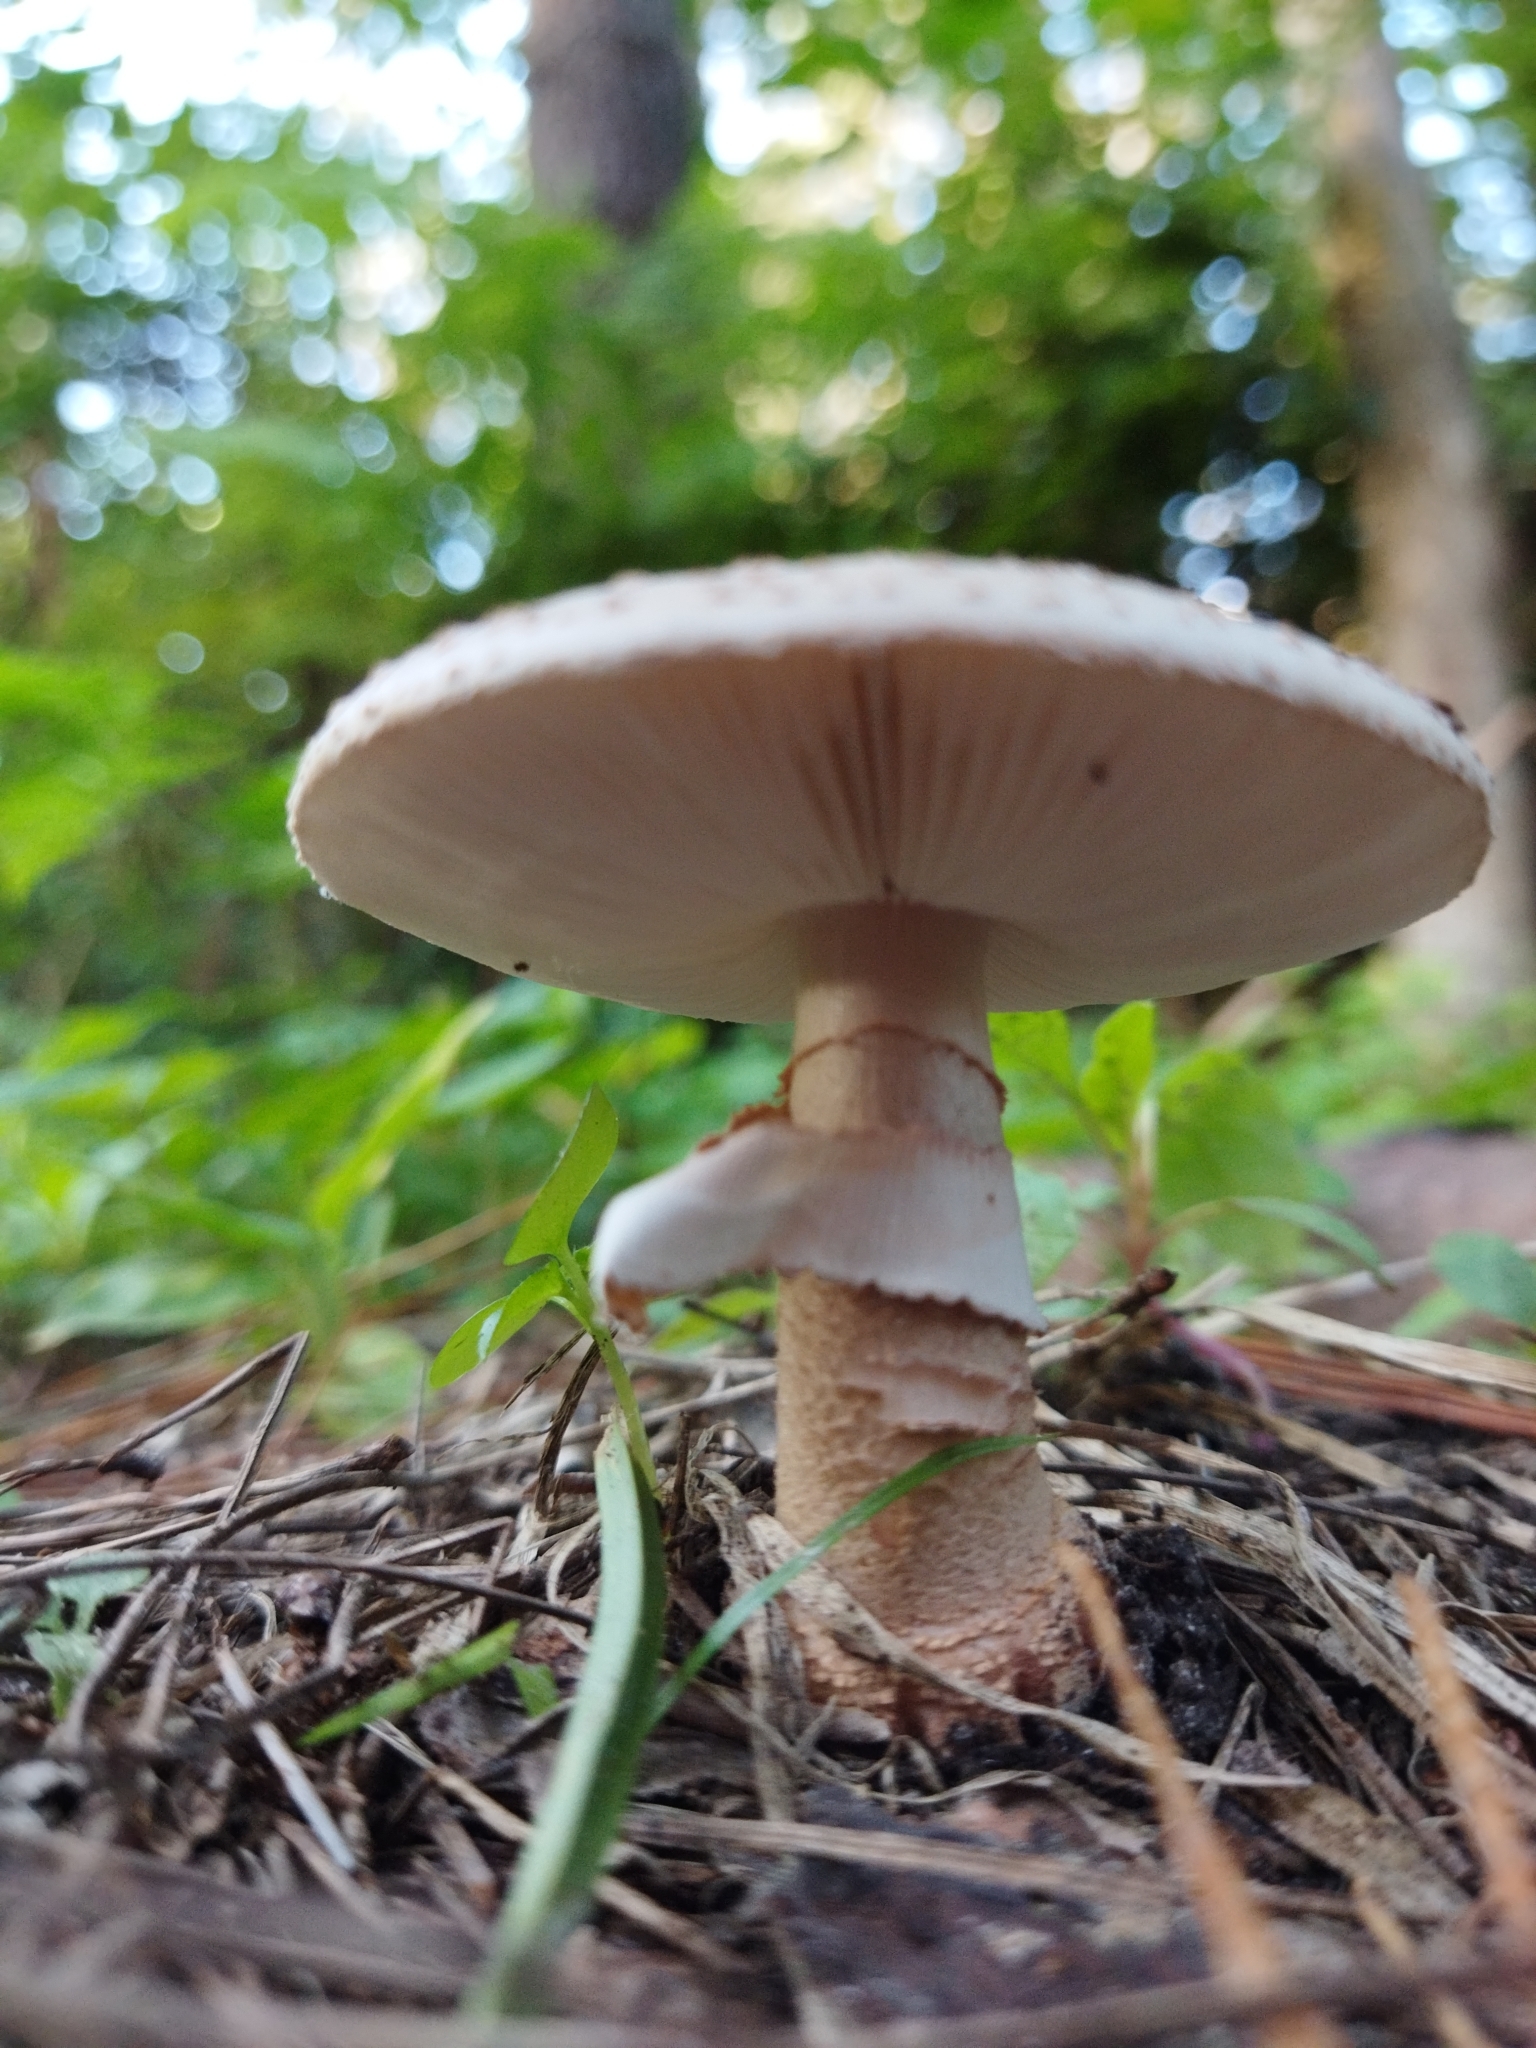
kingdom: Fungi
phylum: Basidiomycota
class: Agaricomycetes
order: Agaricales
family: Amanitaceae
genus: Amanita
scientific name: Amanita pantherina
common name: Panthercap
